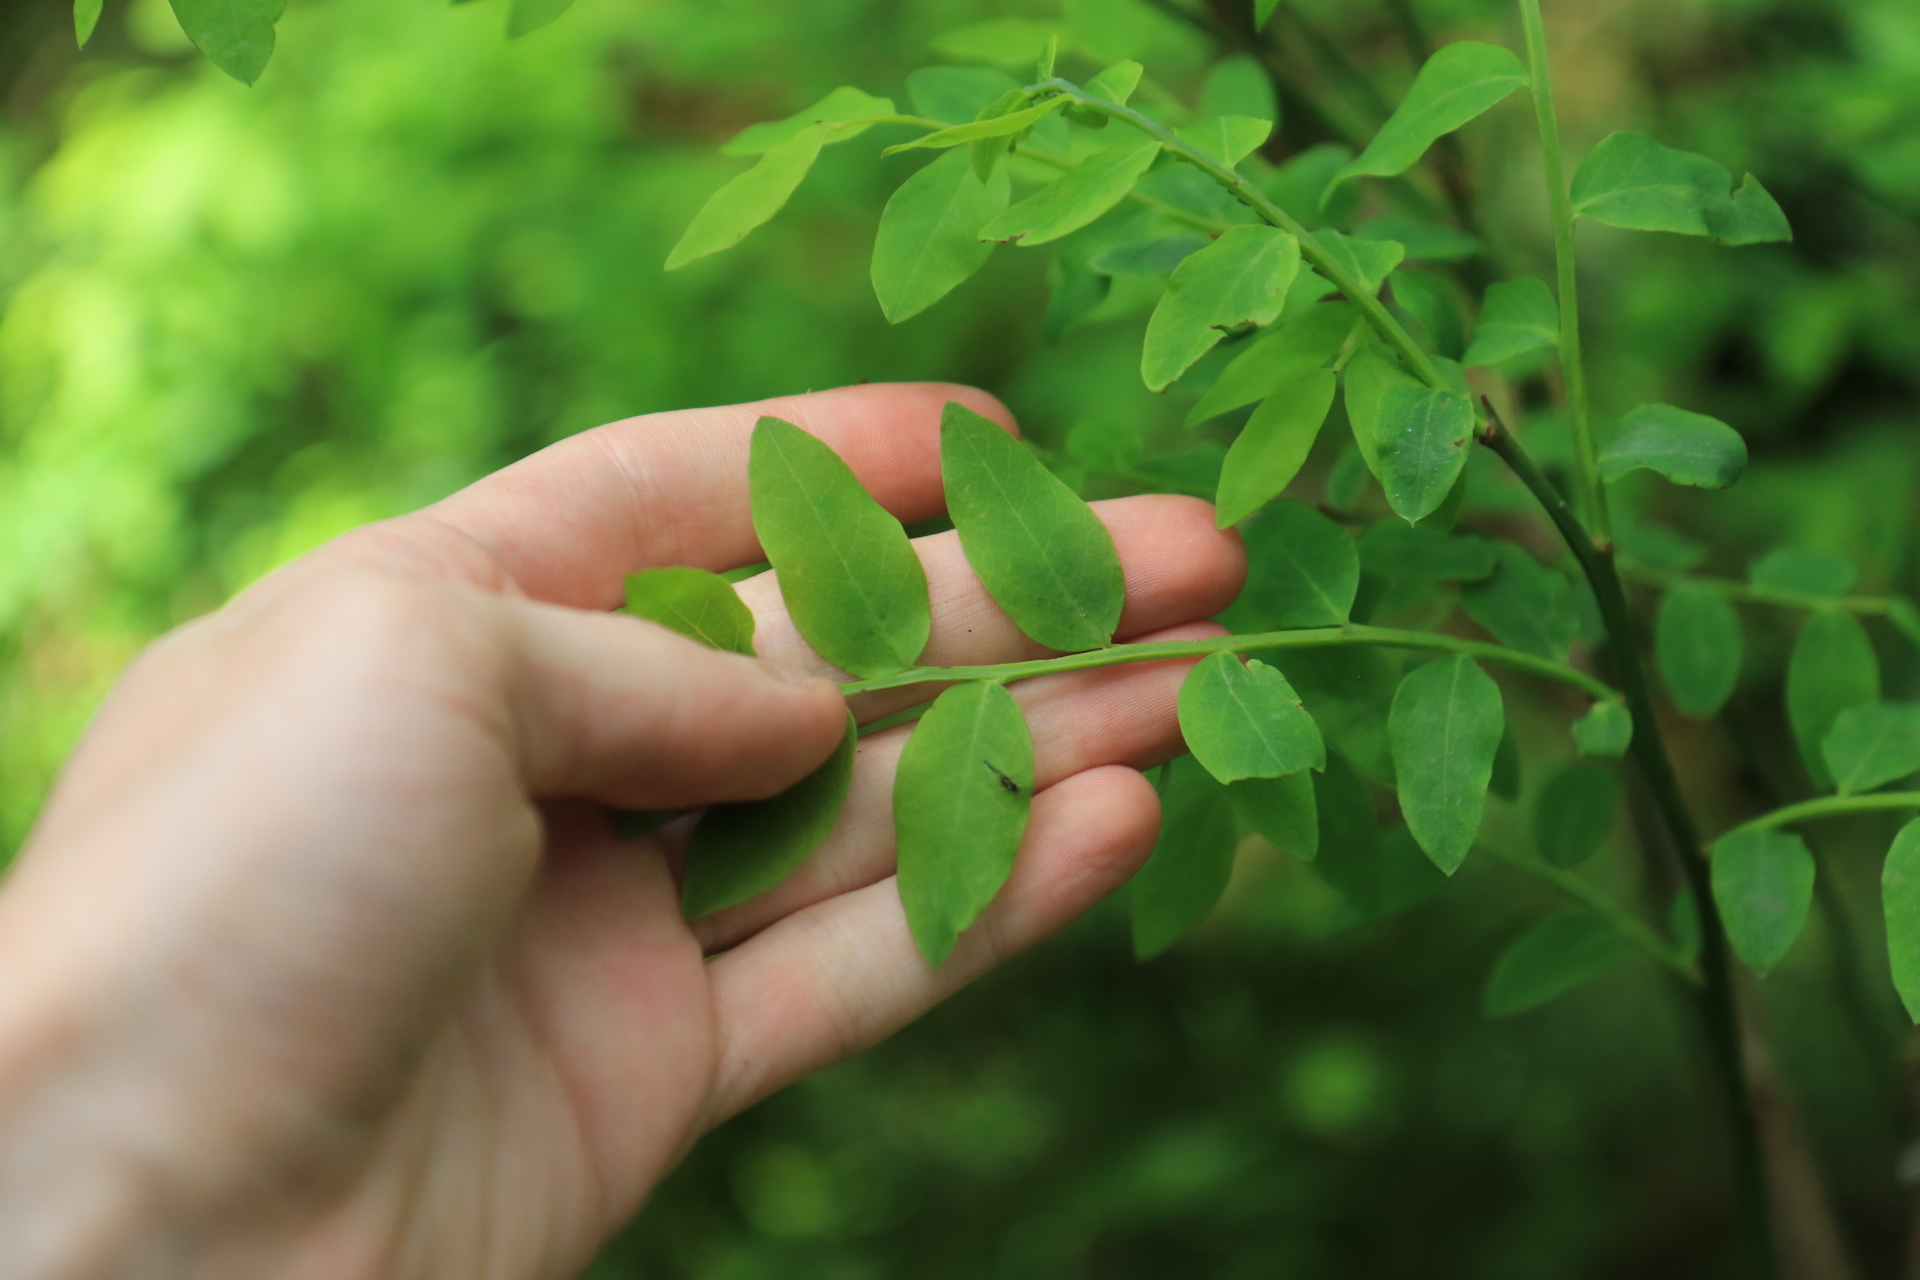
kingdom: Plantae
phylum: Tracheophyta
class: Magnoliopsida
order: Ericales
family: Ericaceae
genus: Vaccinium
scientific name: Vaccinium parvifolium
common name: Red-huckleberry
